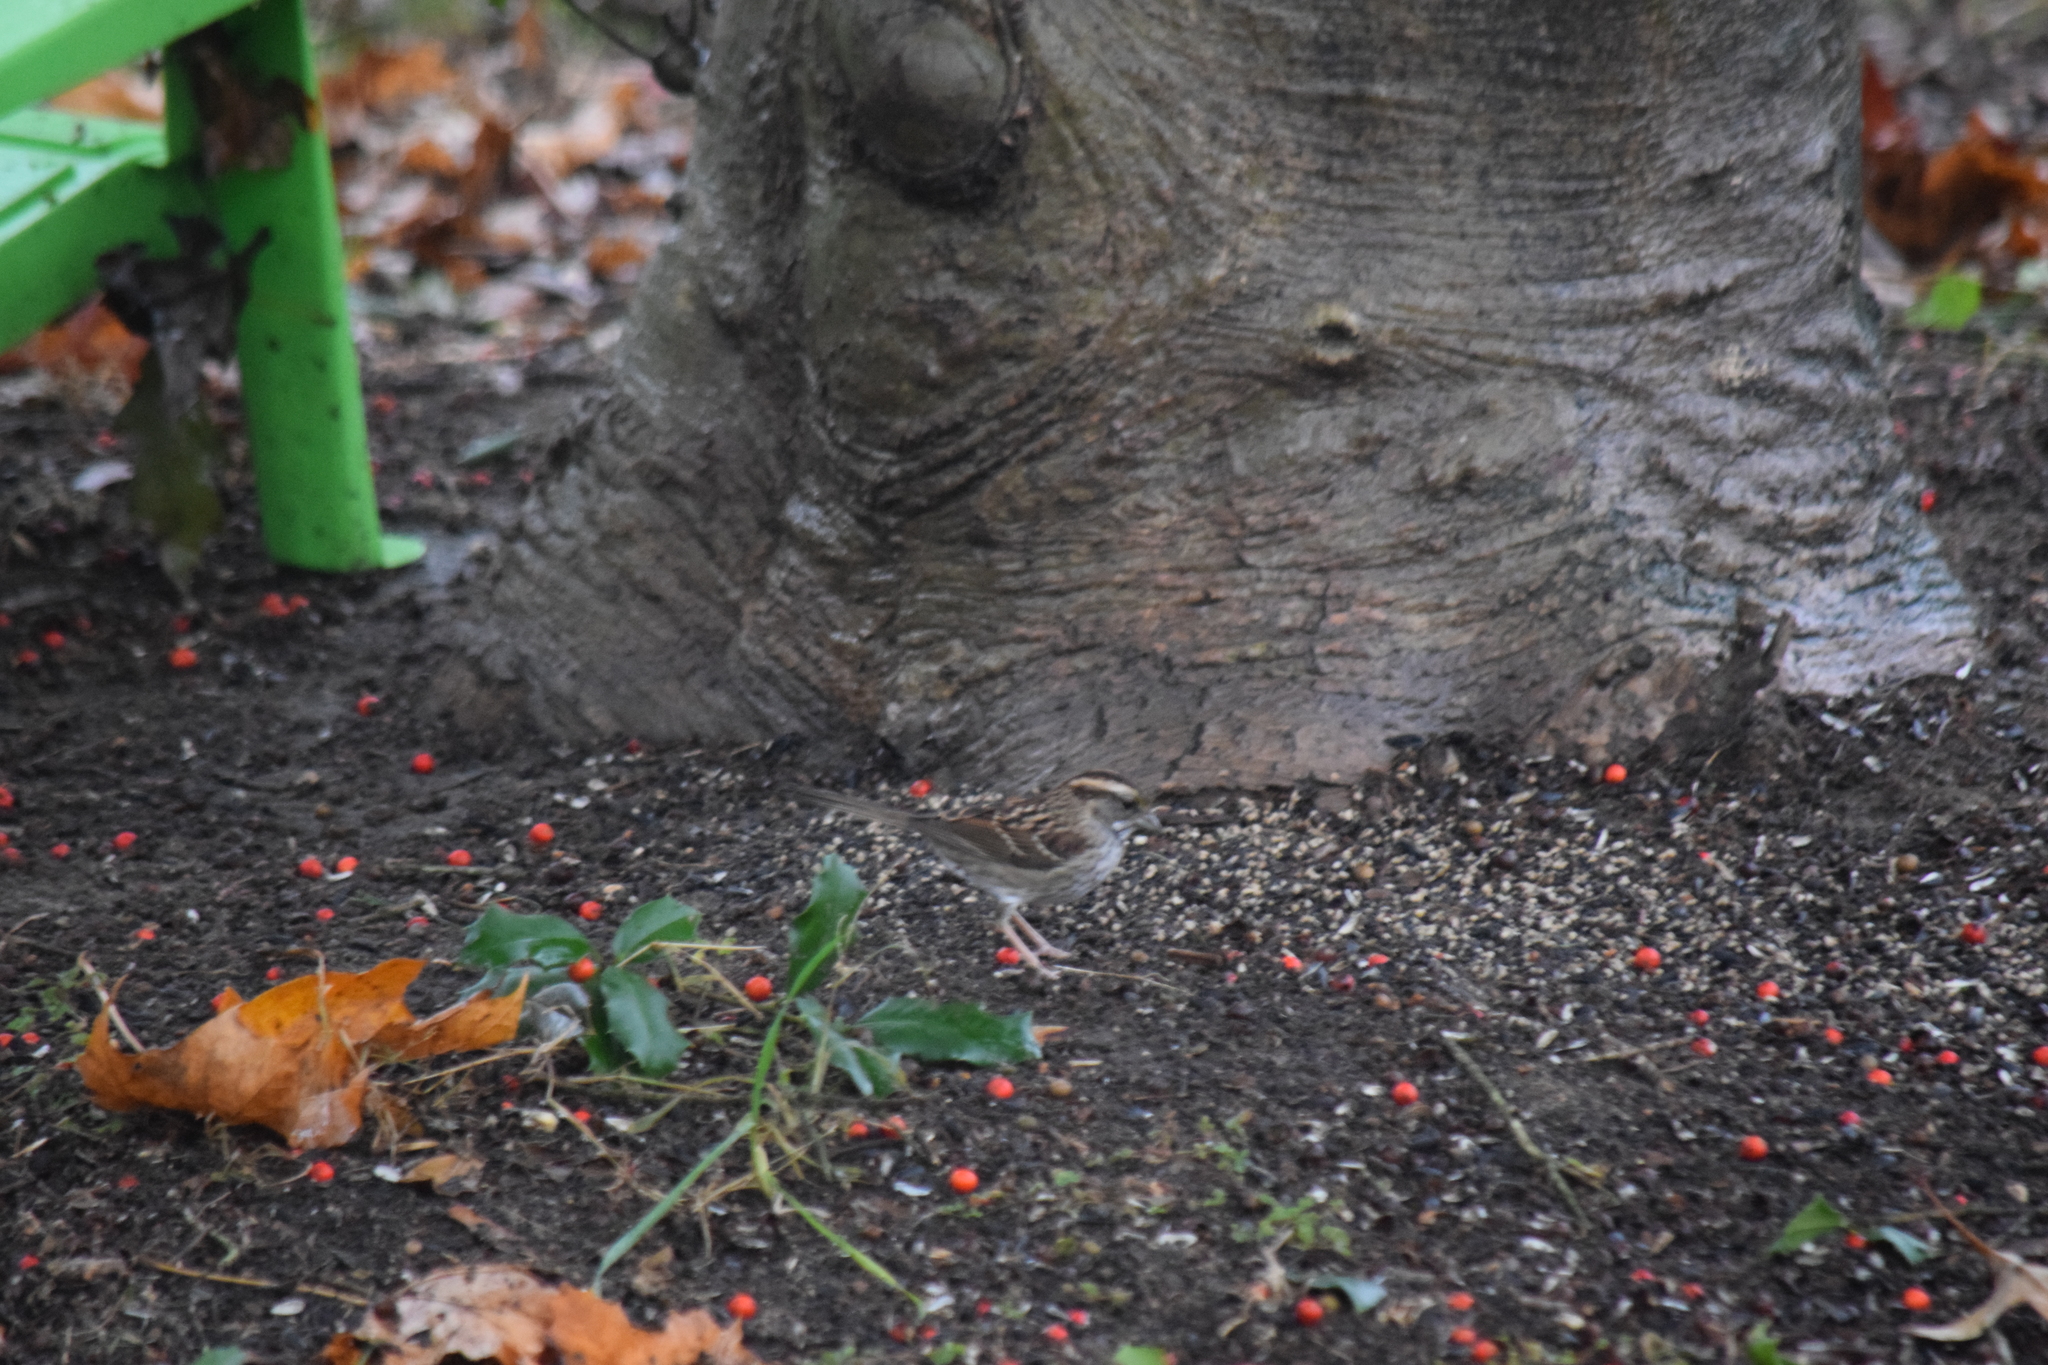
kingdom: Animalia
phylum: Chordata
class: Aves
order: Passeriformes
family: Passerellidae
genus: Zonotrichia
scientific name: Zonotrichia albicollis
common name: White-throated sparrow
